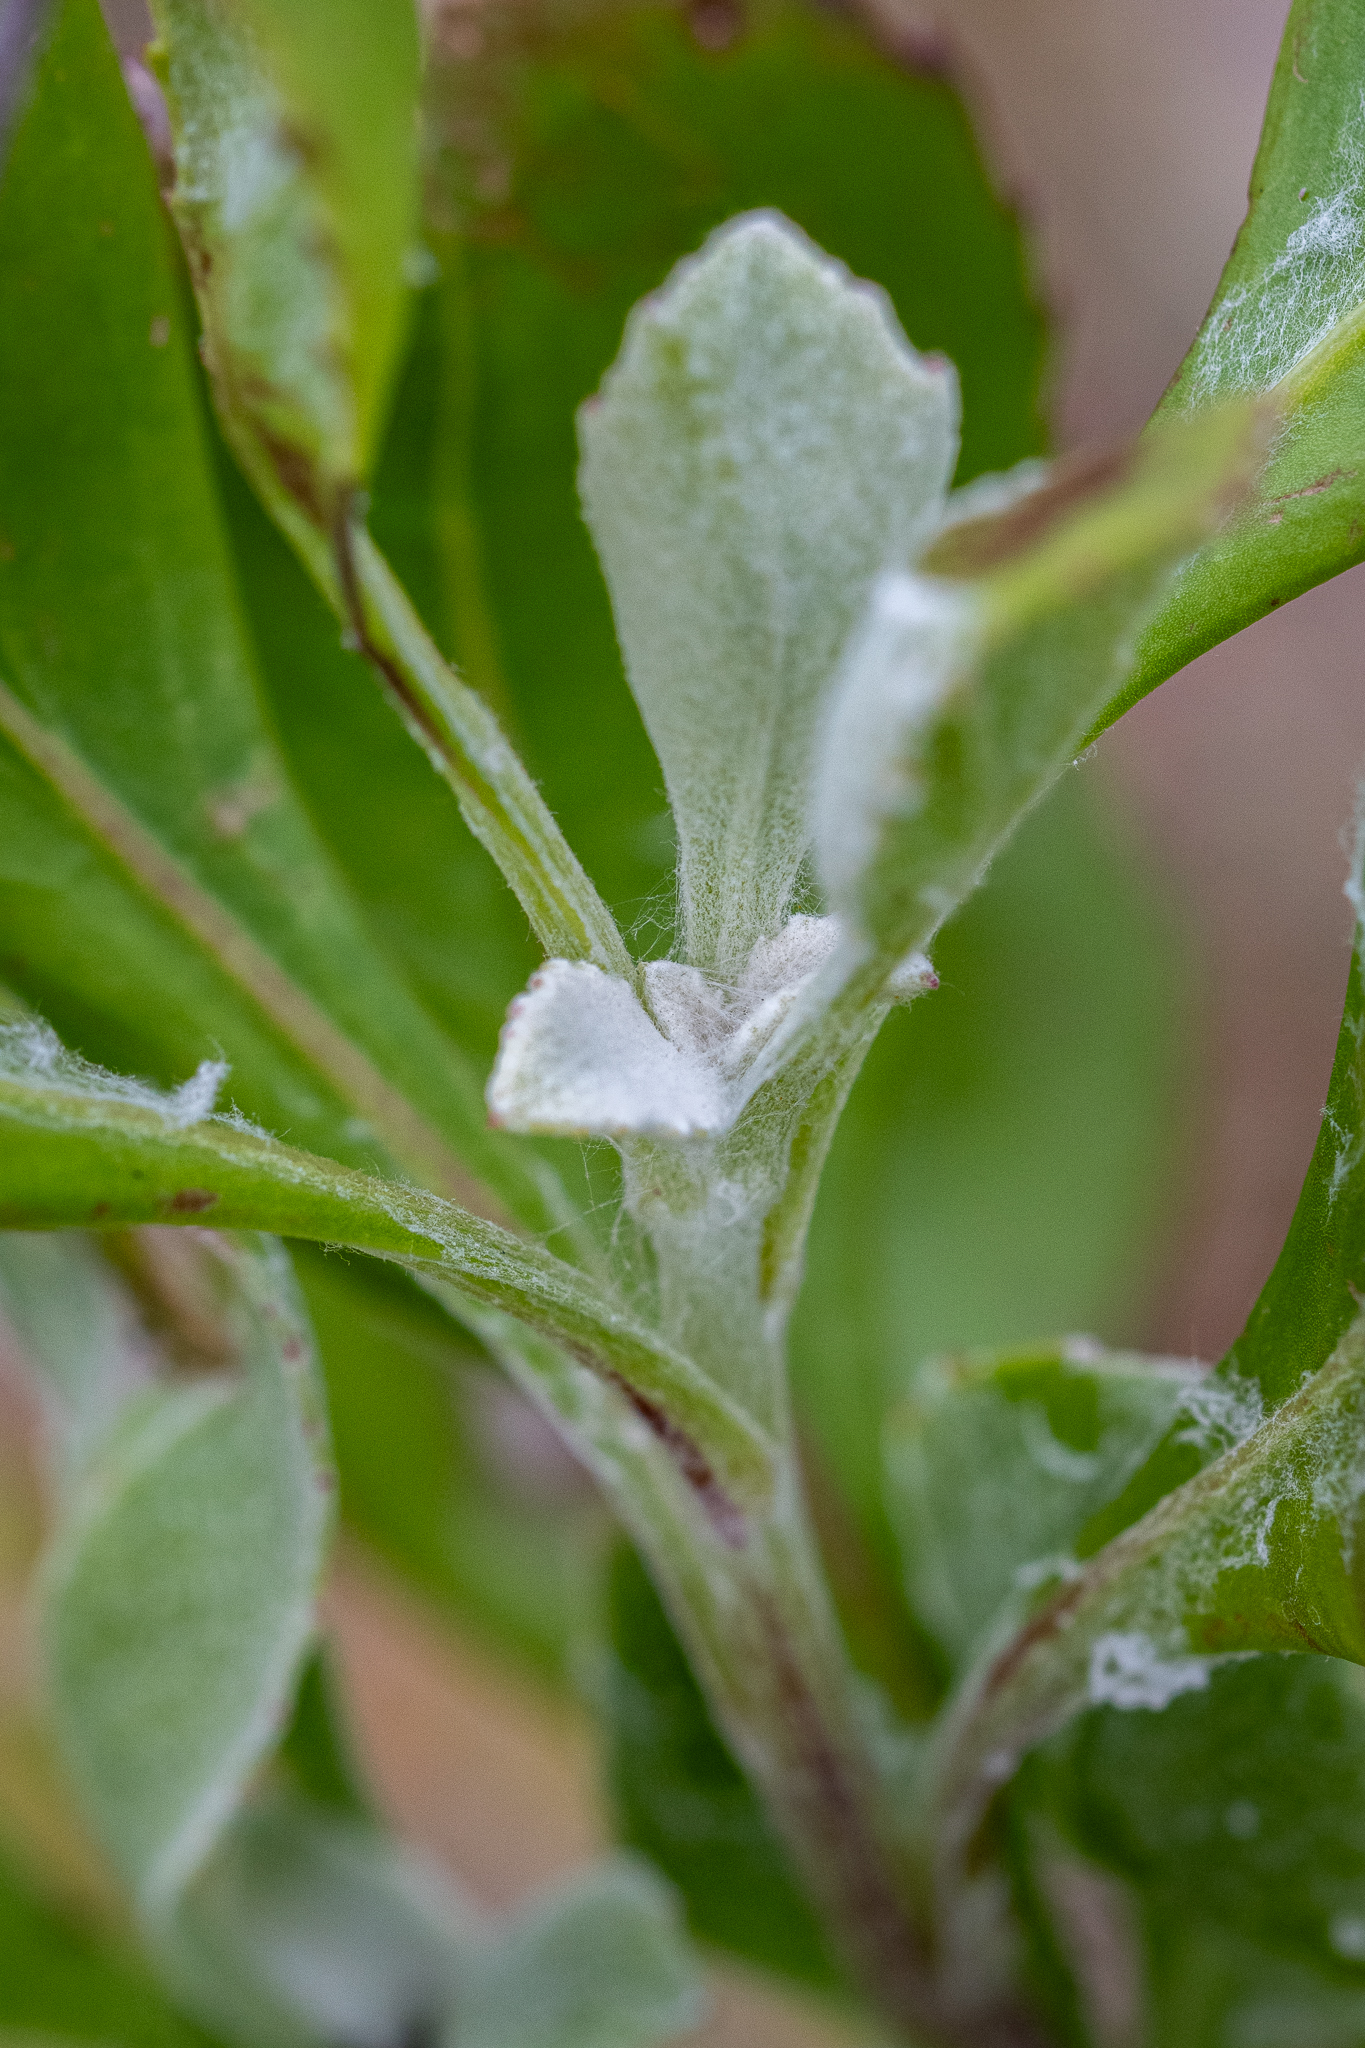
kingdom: Plantae
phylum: Tracheophyta
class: Magnoliopsida
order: Asterales
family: Asteraceae
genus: Osteospermum
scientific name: Osteospermum moniliferum
